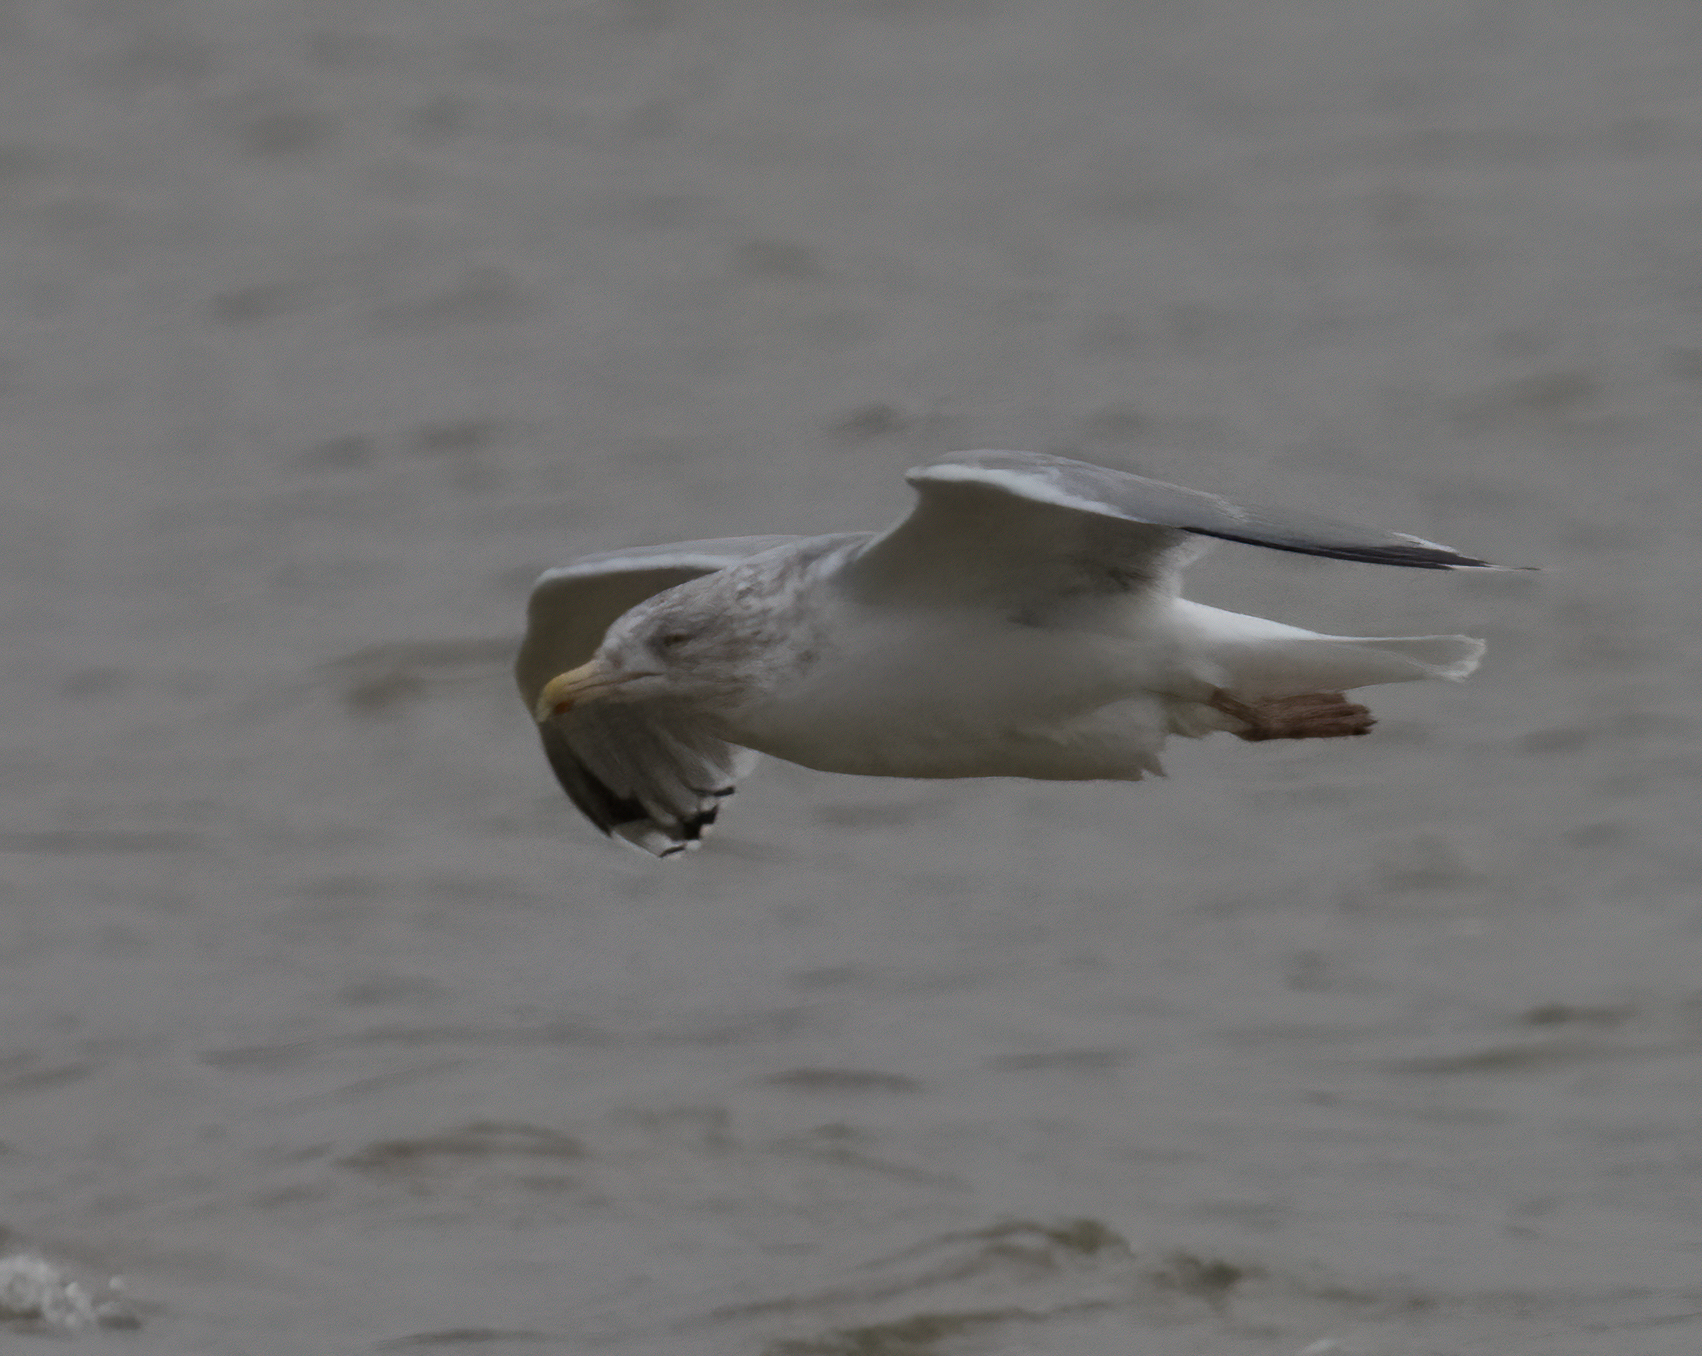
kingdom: Animalia
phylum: Chordata
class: Aves
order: Charadriiformes
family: Laridae
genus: Larus
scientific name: Larus argentatus
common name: Herring gull
